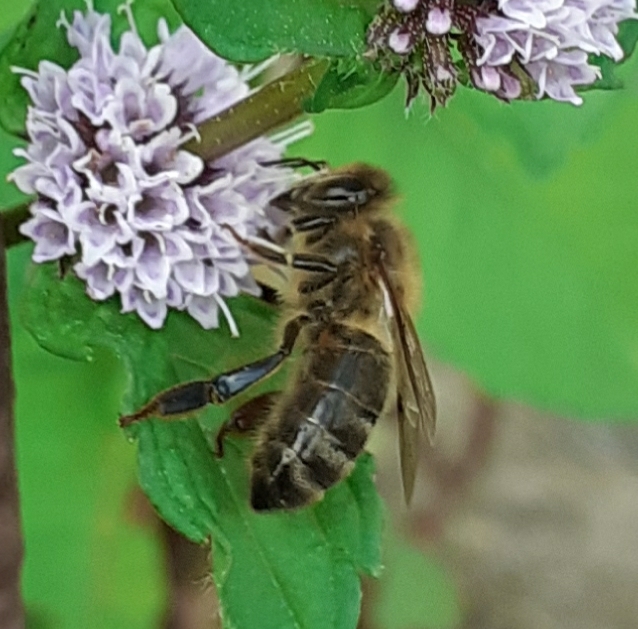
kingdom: Animalia
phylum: Arthropoda
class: Insecta
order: Hymenoptera
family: Apidae
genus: Apis
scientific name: Apis mellifera
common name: Honey bee
